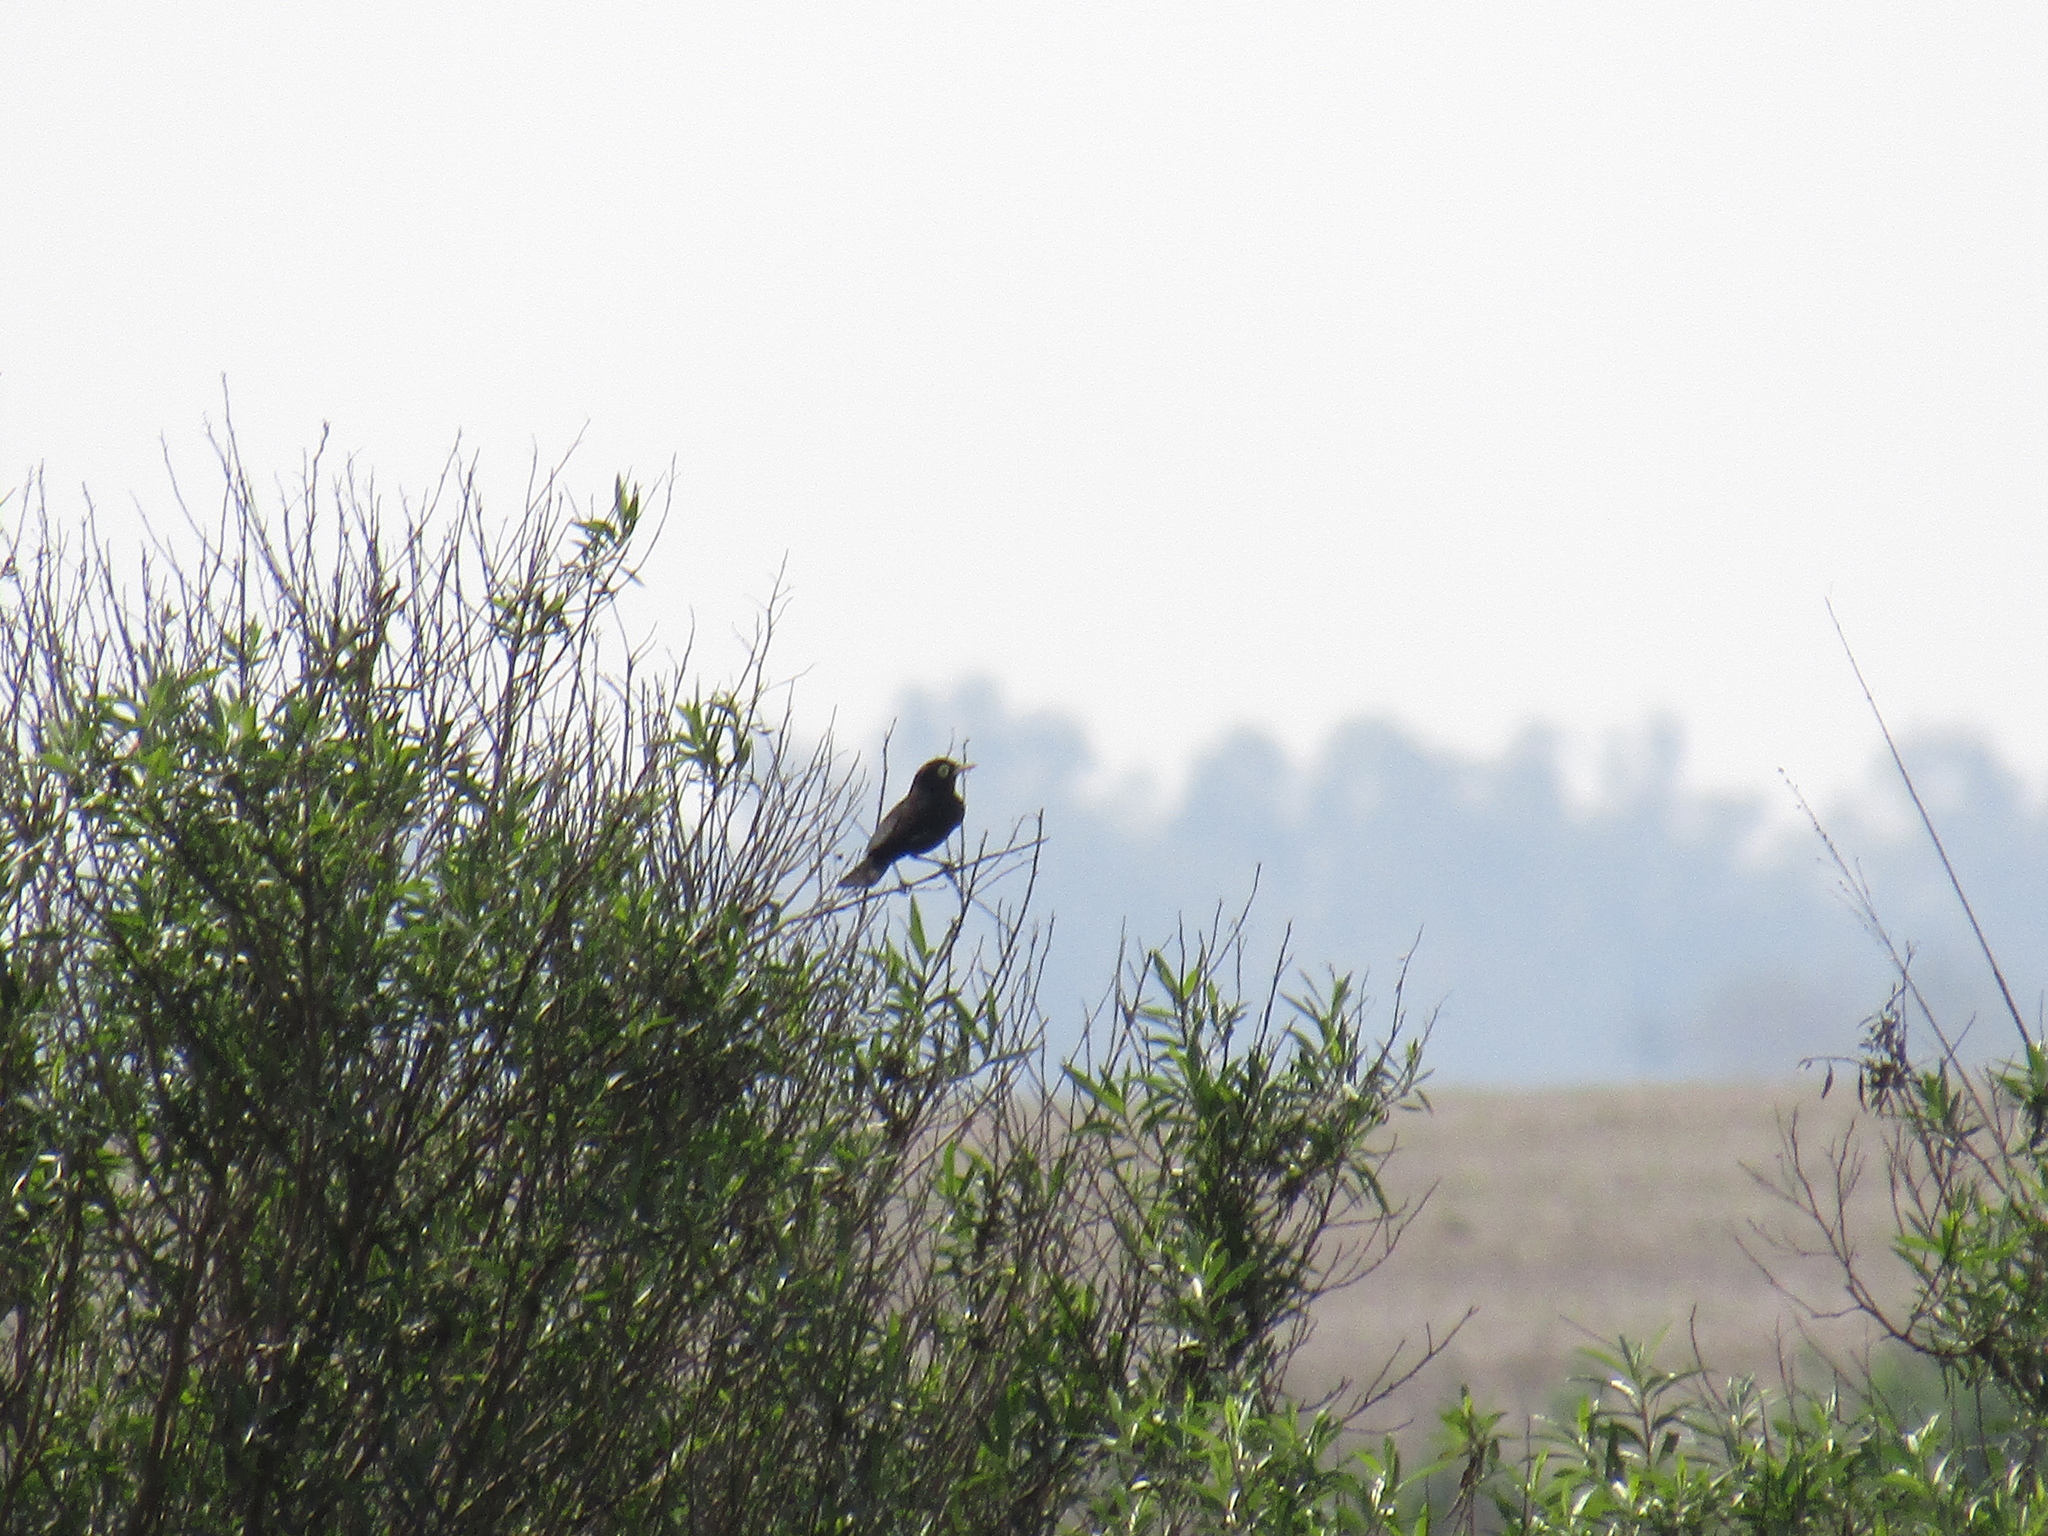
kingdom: Animalia
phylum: Chordata
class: Aves
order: Passeriformes
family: Tyrannidae
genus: Hymenops
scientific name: Hymenops perspicillatus
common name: Spectacled tyrant
